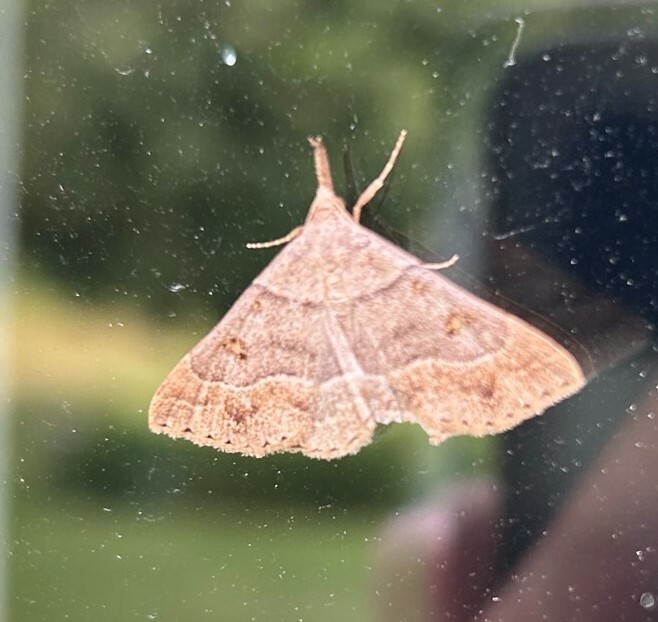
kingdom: Animalia
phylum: Arthropoda
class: Insecta
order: Lepidoptera
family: Erebidae
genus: Renia
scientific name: Renia flavipunctalis
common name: Yellow-spotted renia moth
